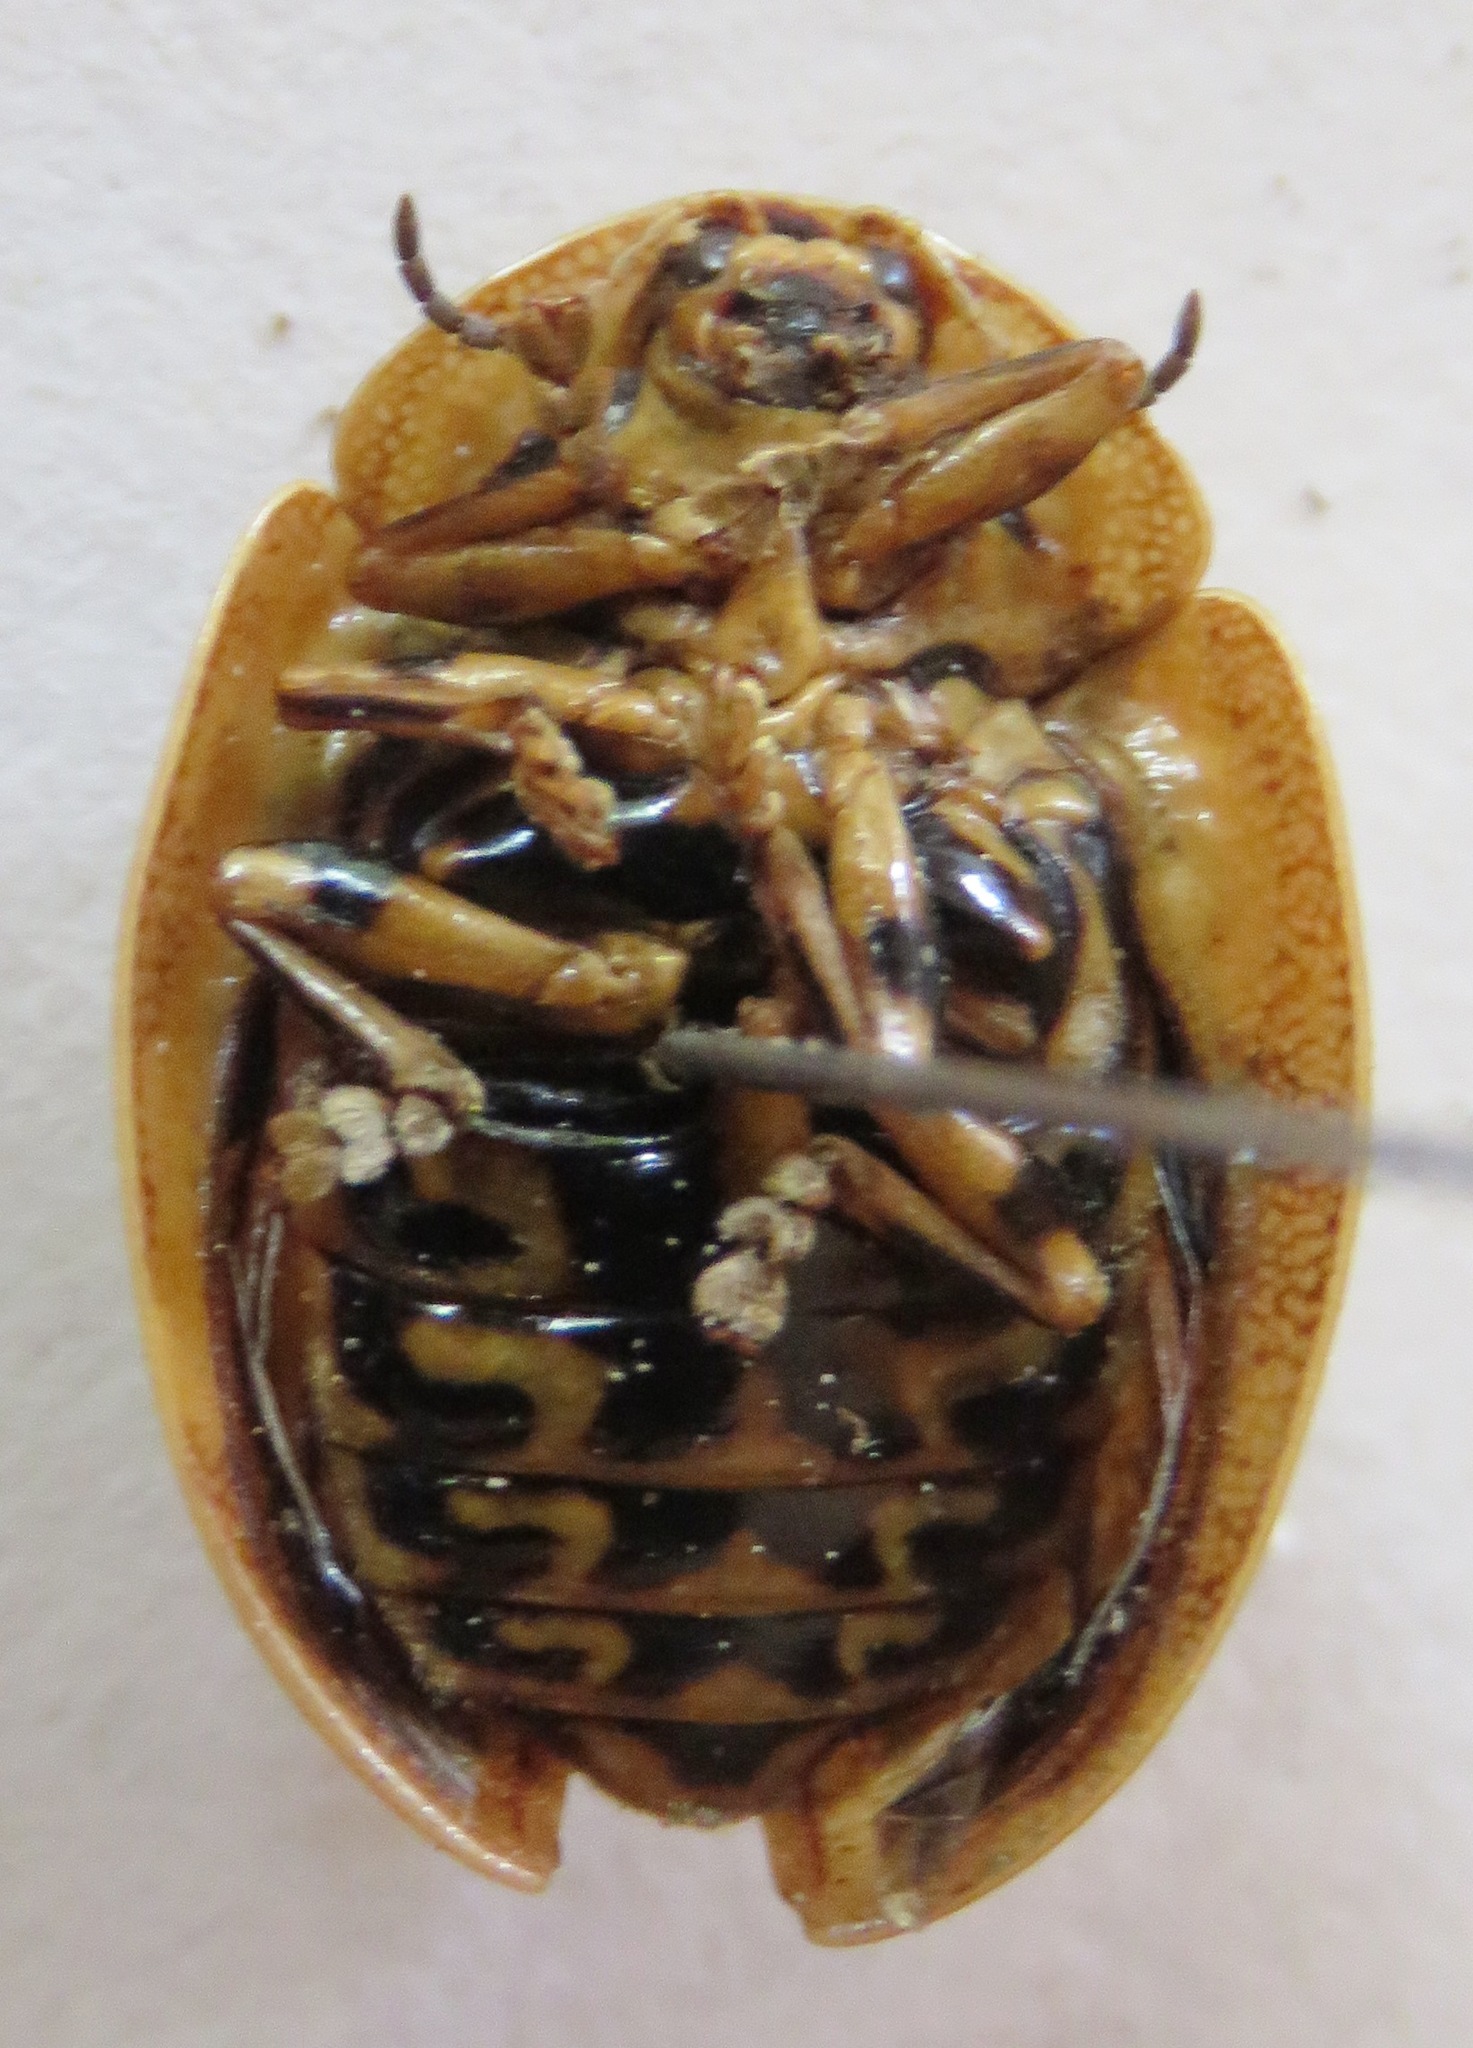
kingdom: Animalia
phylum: Arthropoda
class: Insecta
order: Coleoptera
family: Chrysomelidae
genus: Physonota
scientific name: Physonota alutacea
